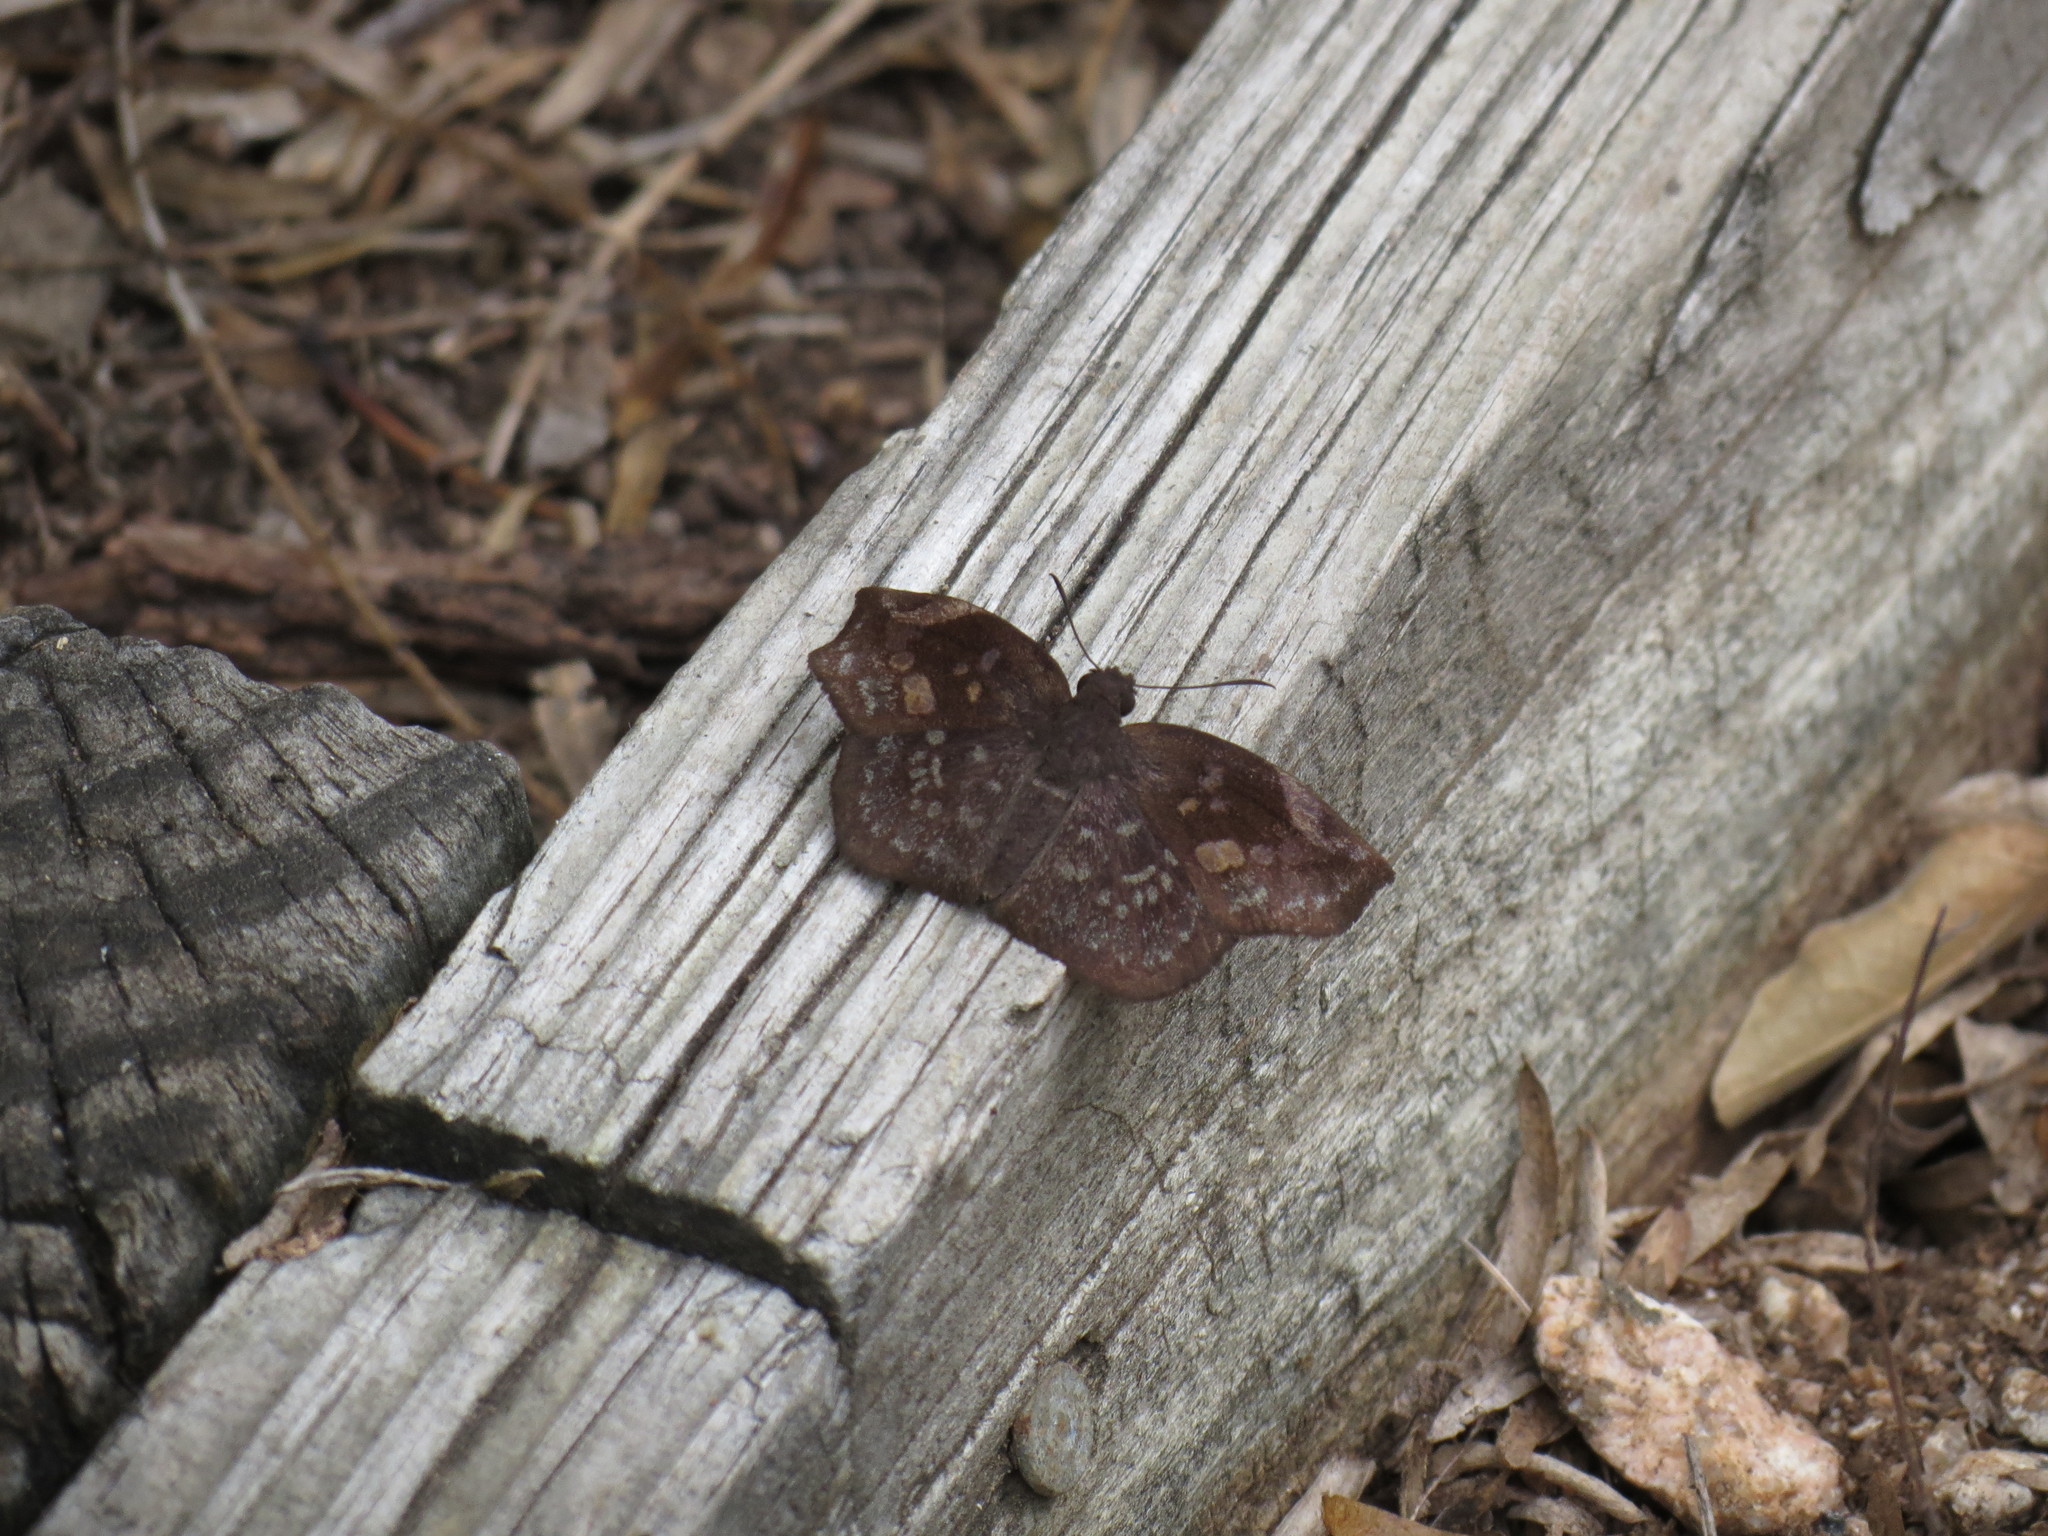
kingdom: Animalia
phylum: Arthropoda
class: Insecta
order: Lepidoptera
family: Hesperiidae
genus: Achlyodes
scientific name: Achlyodes thraso
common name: Sickle-winged skipper
